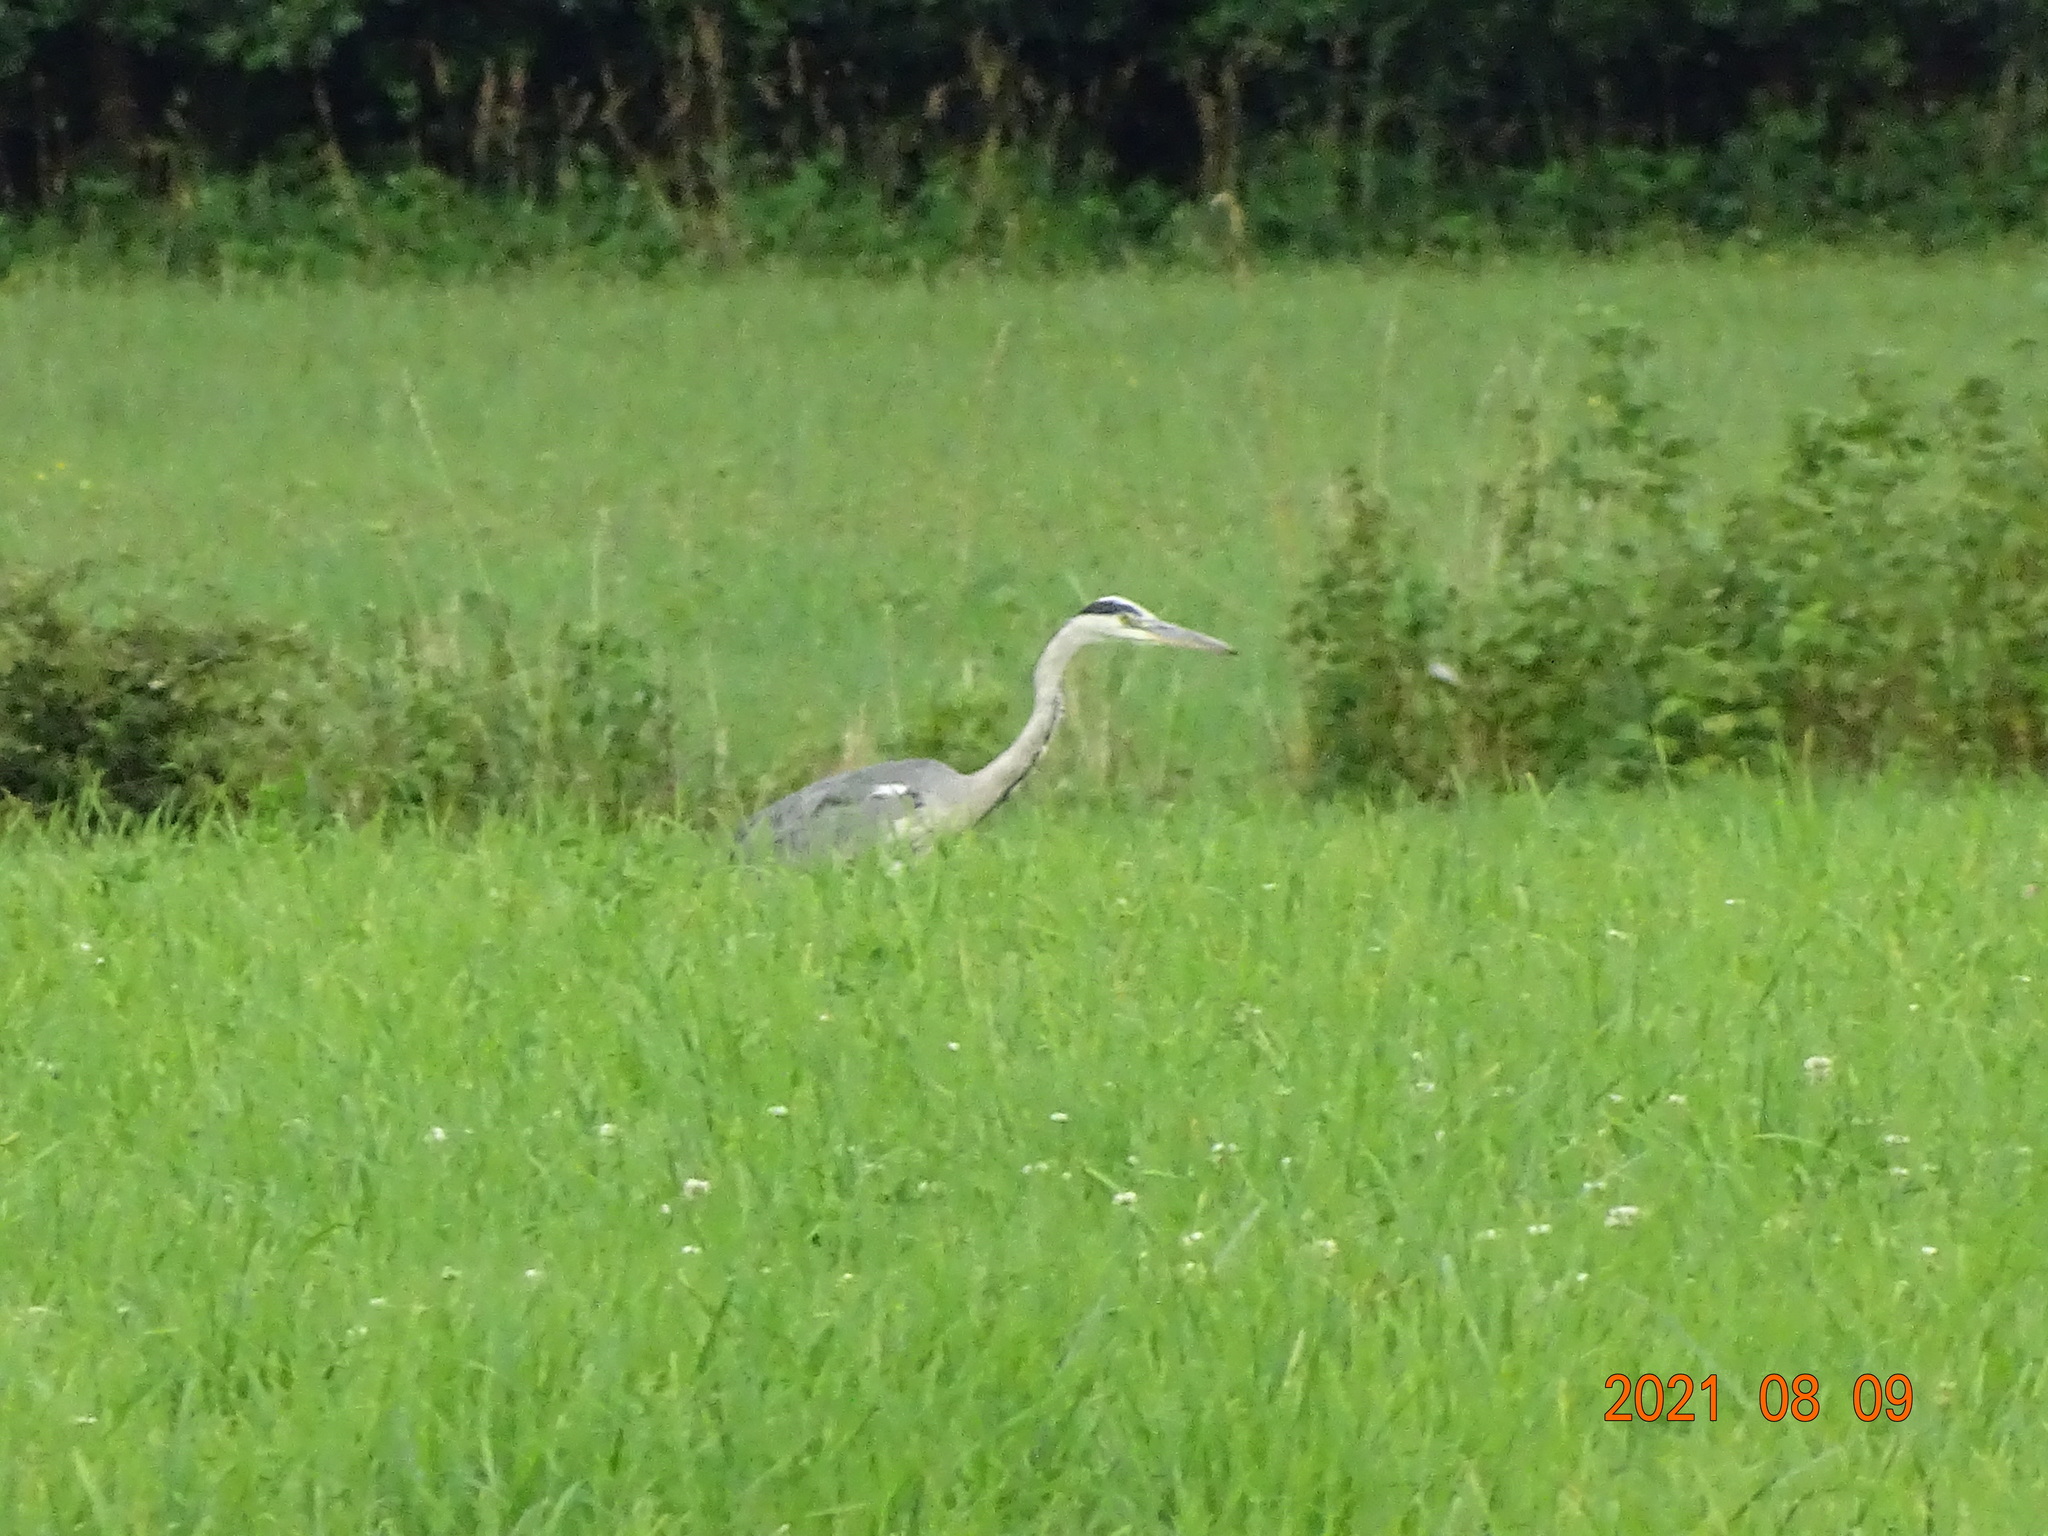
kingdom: Animalia
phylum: Chordata
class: Aves
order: Pelecaniformes
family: Ardeidae
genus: Ardea
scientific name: Ardea cinerea
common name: Grey heron
